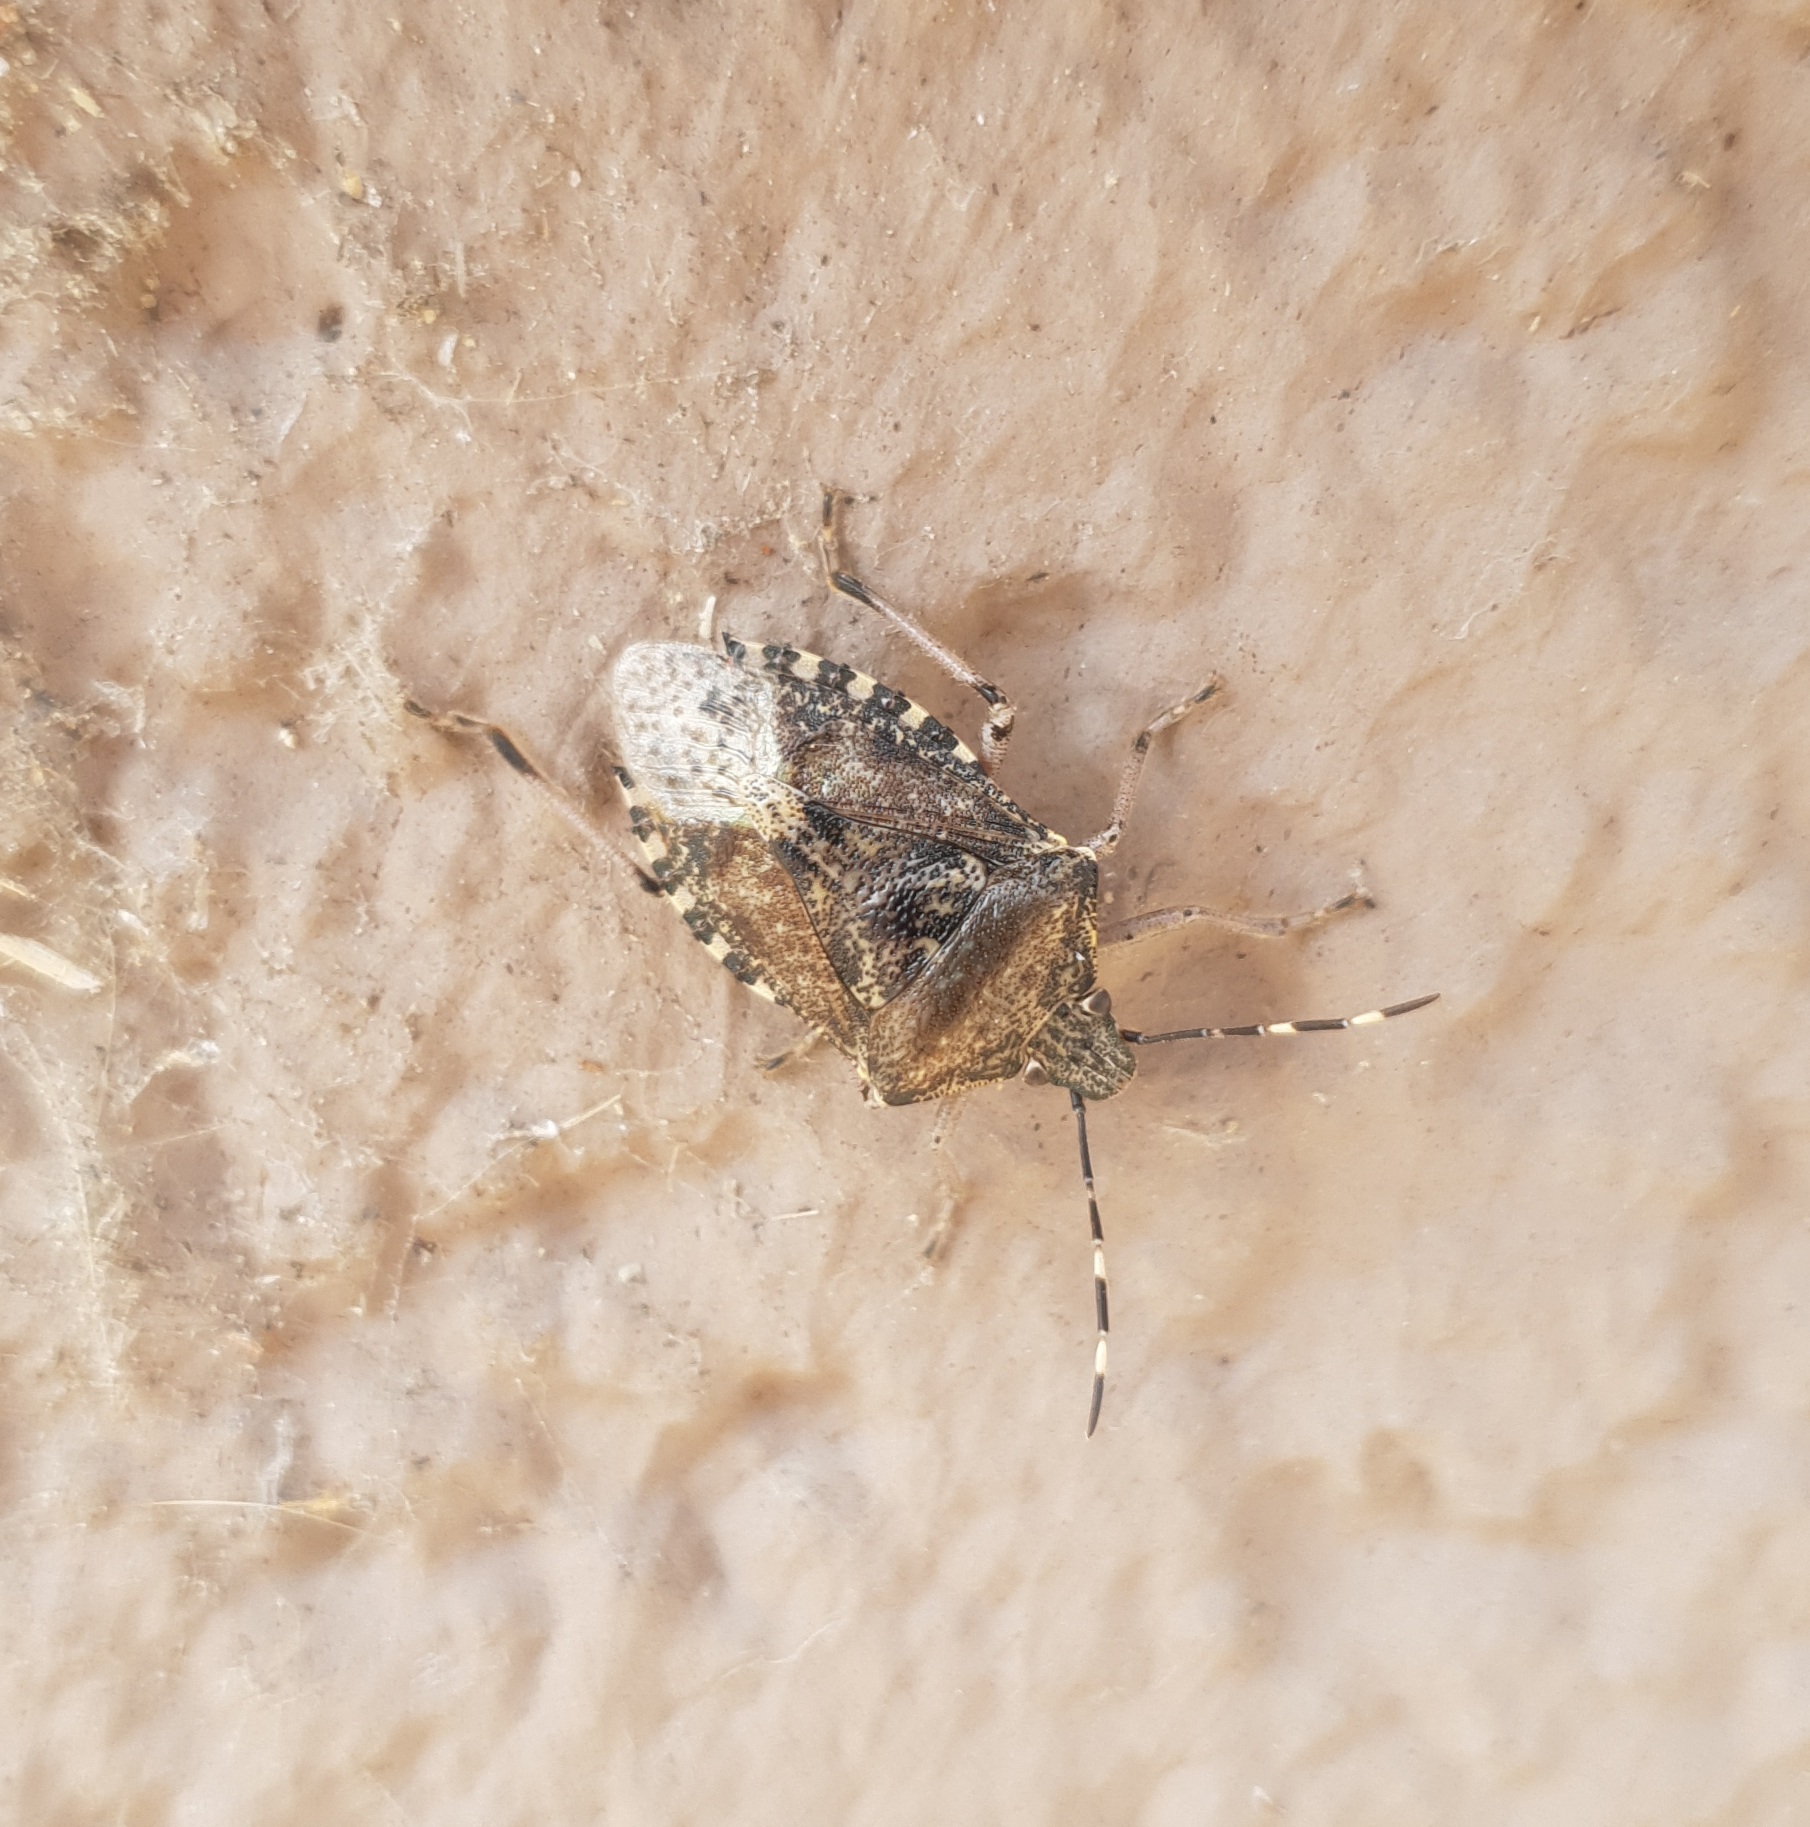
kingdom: Animalia
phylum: Arthropoda
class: Insecta
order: Hemiptera
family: Pentatomidae
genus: Rhaphigaster
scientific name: Rhaphigaster nebulosa
